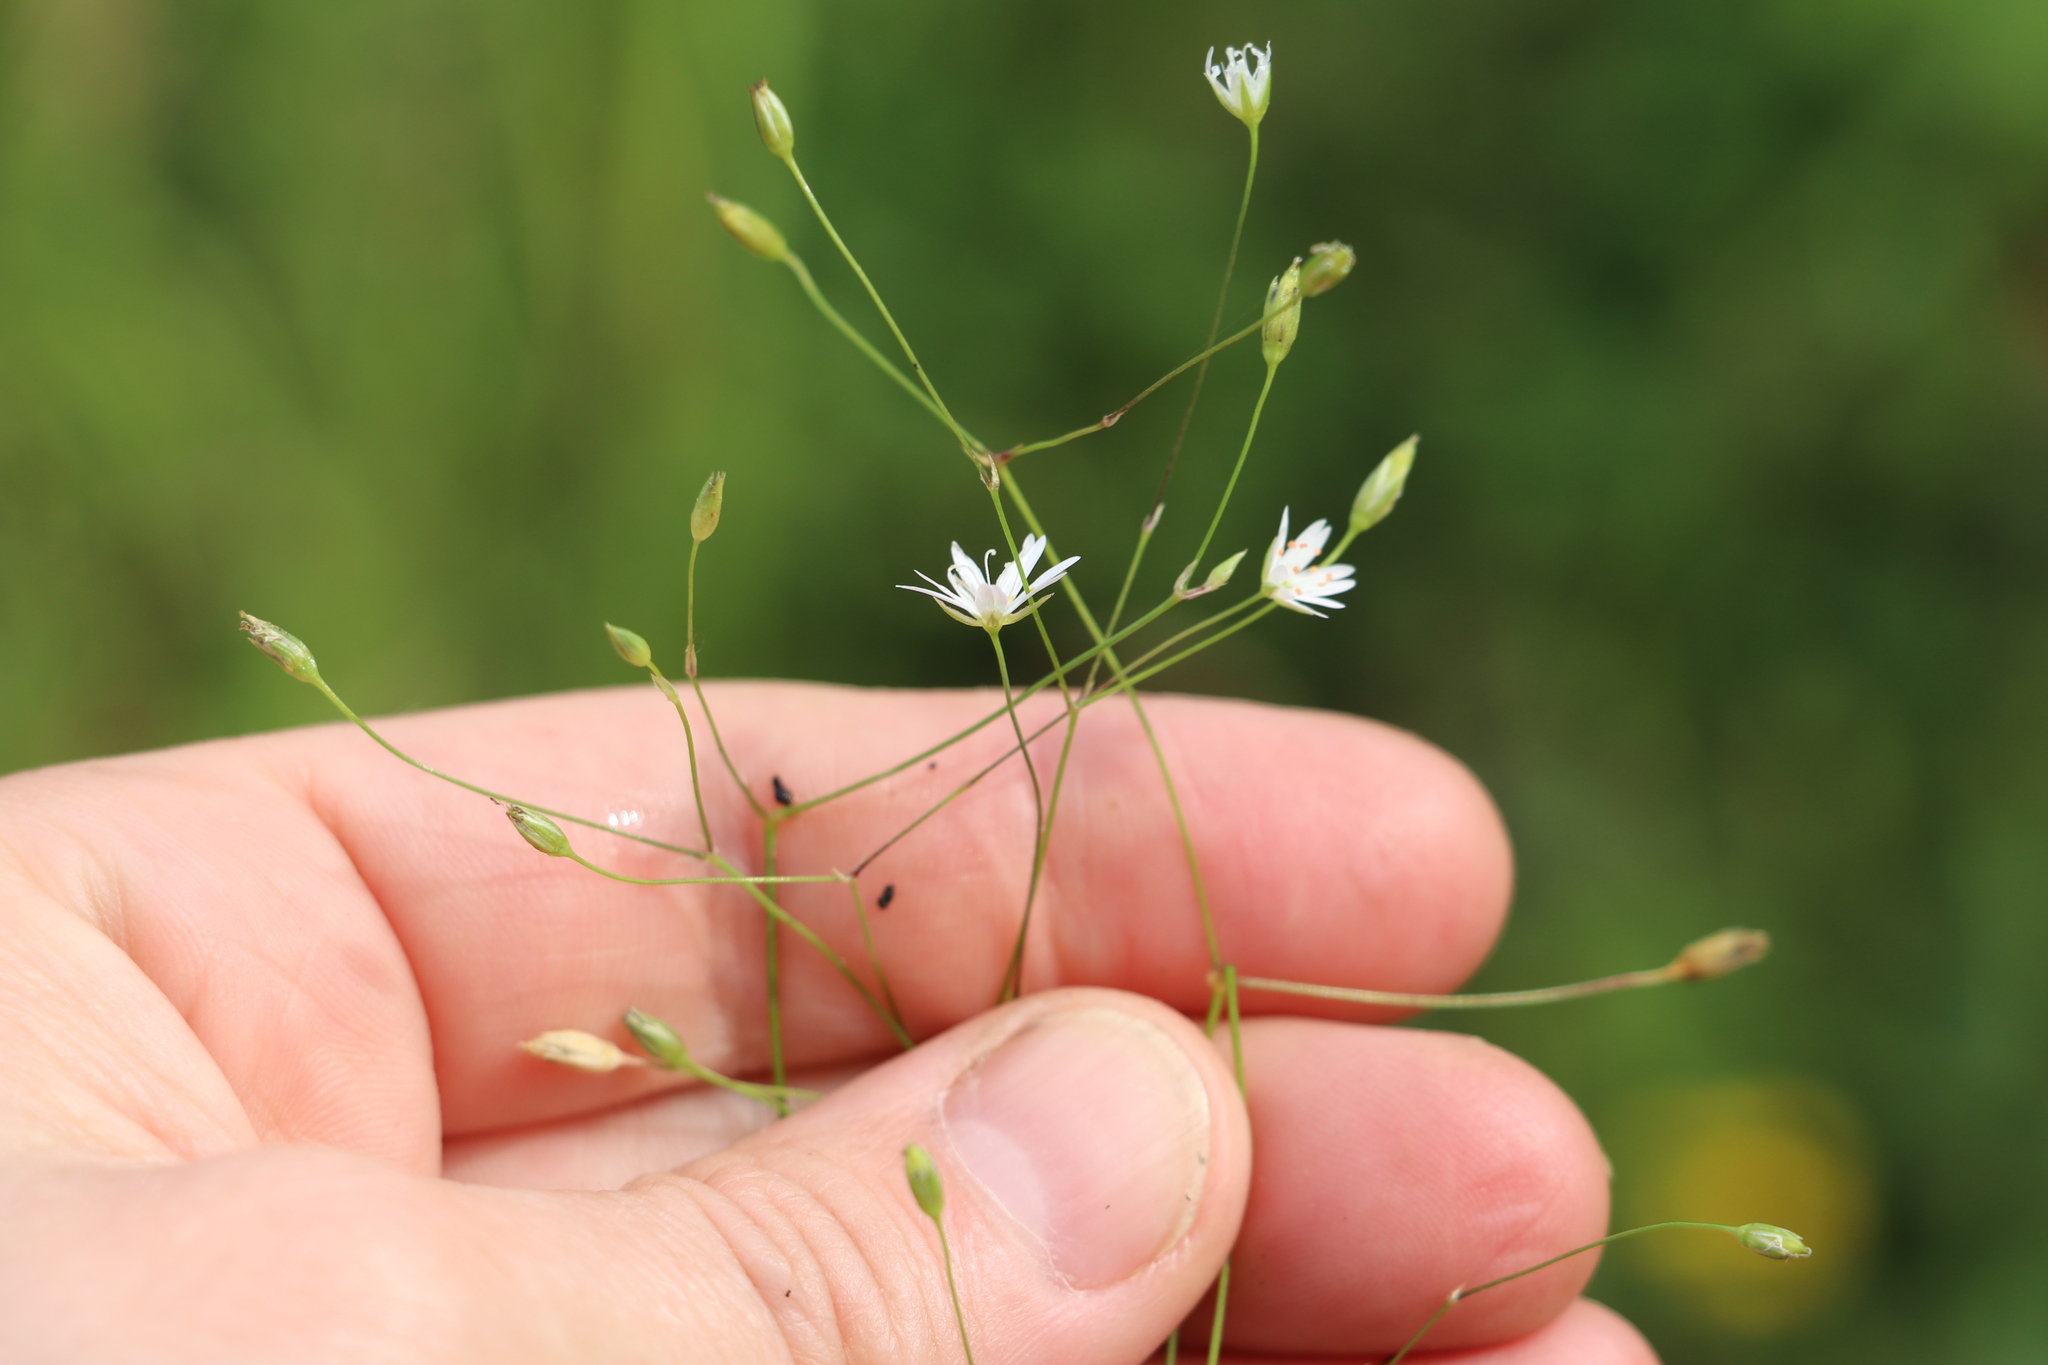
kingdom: Plantae
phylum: Tracheophyta
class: Magnoliopsida
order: Caryophyllales
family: Caryophyllaceae
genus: Stellaria
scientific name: Stellaria graminea
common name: Grass-like starwort
